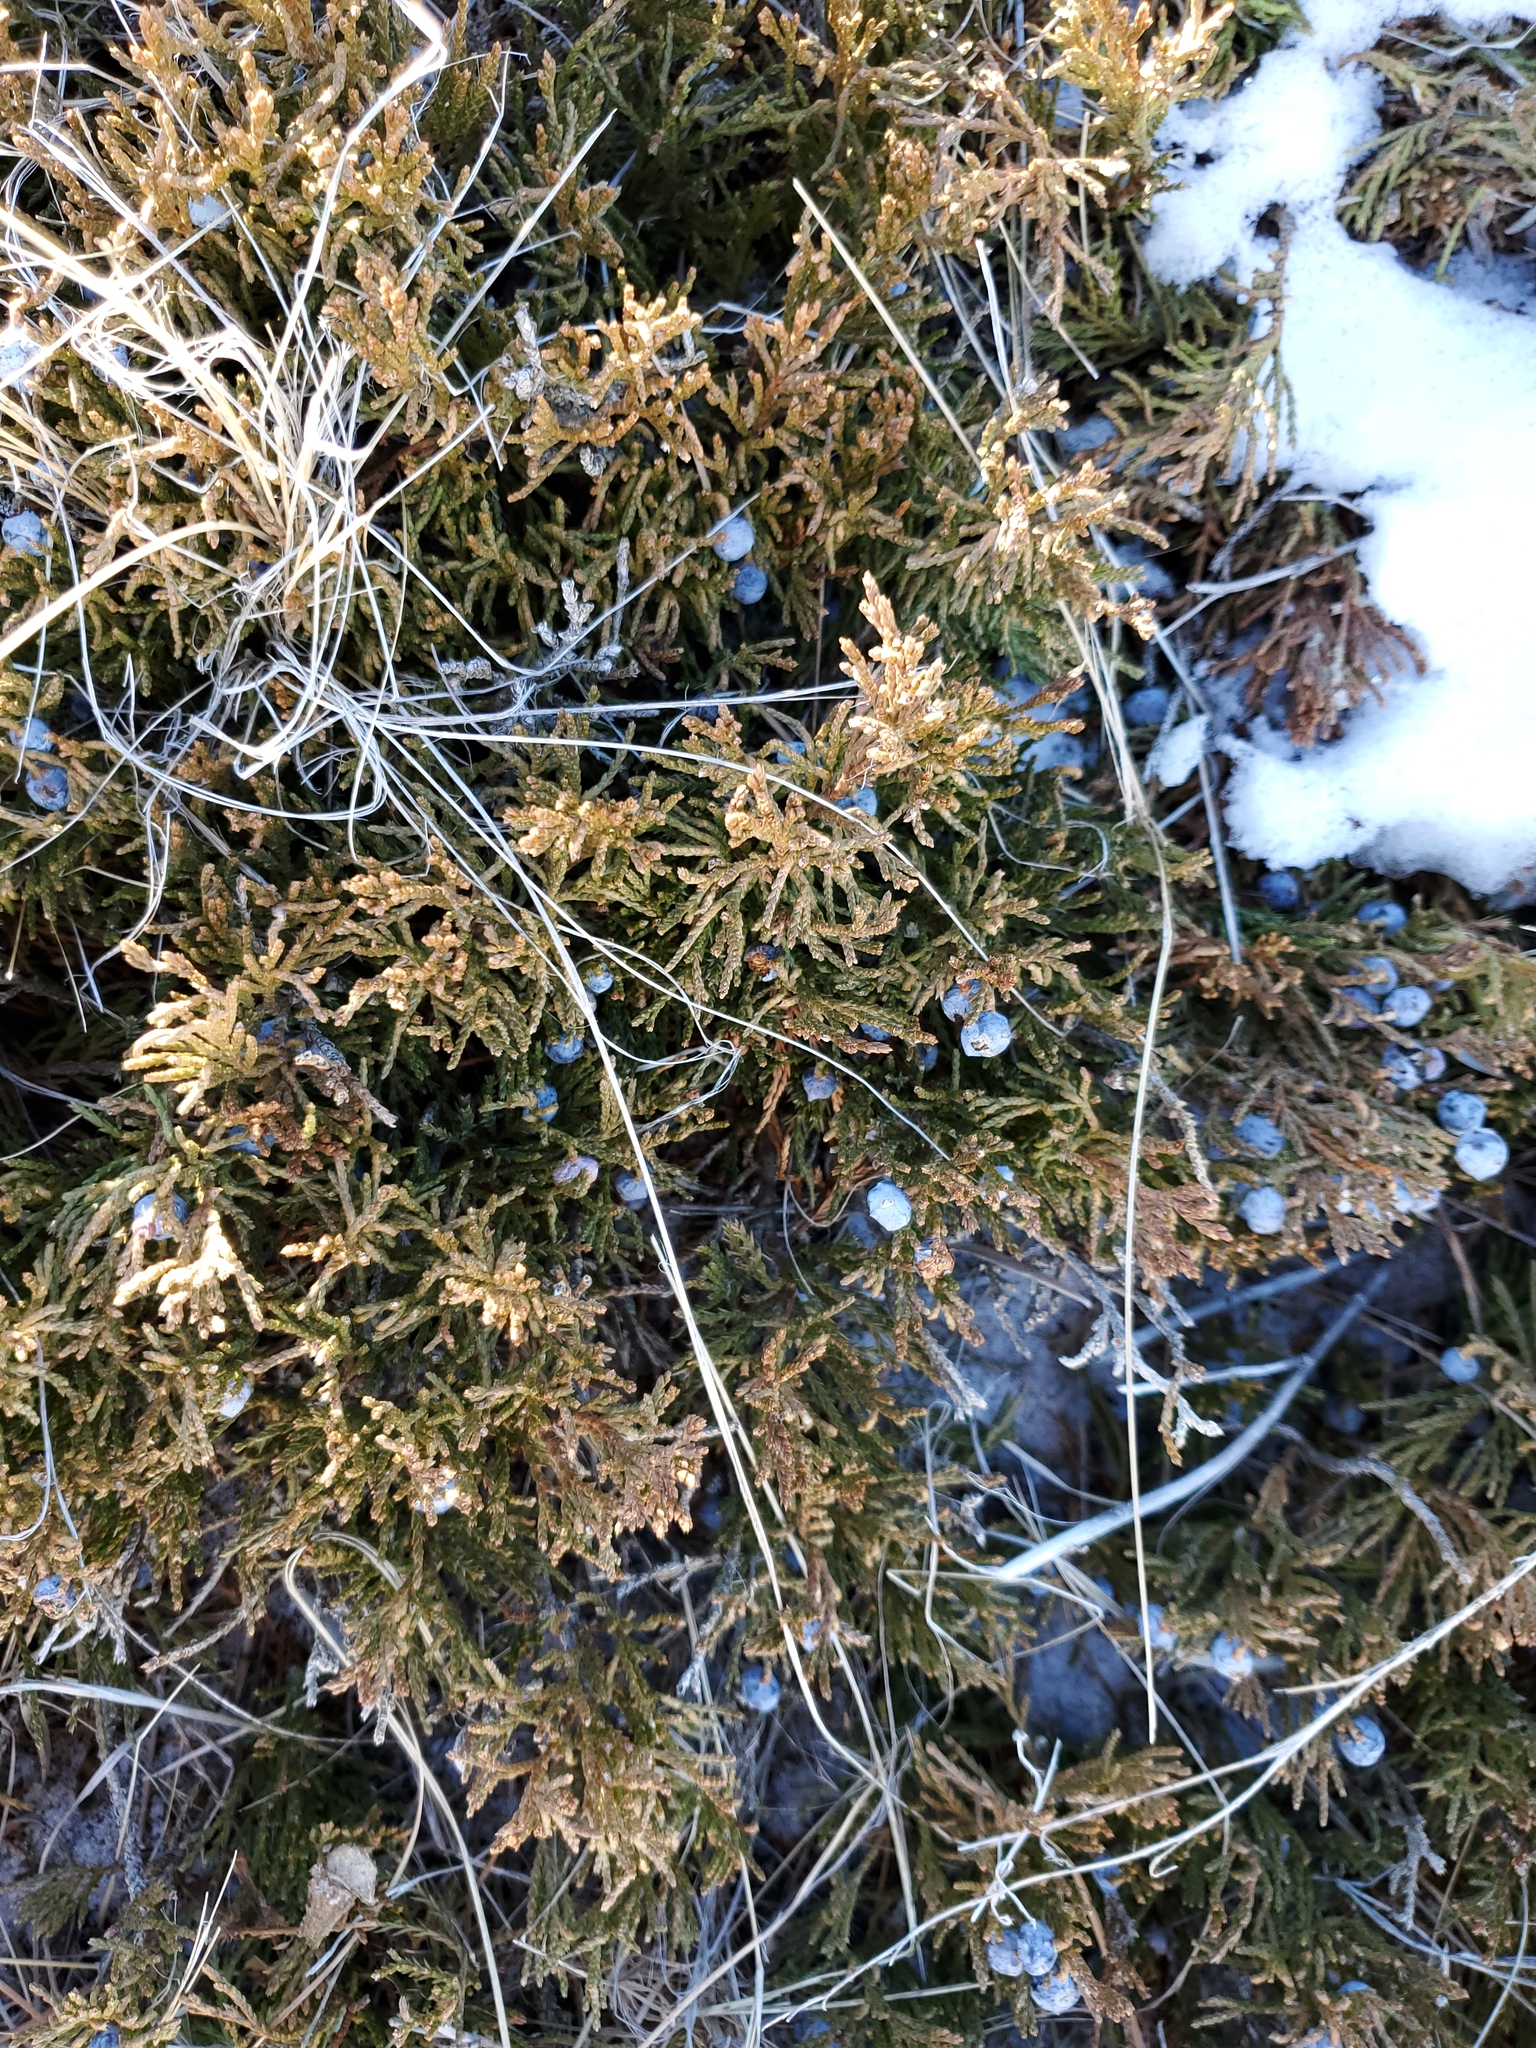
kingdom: Plantae
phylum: Tracheophyta
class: Pinopsida
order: Pinales
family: Cupressaceae
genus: Juniperus
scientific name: Juniperus horizontalis
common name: Creeping juniper
